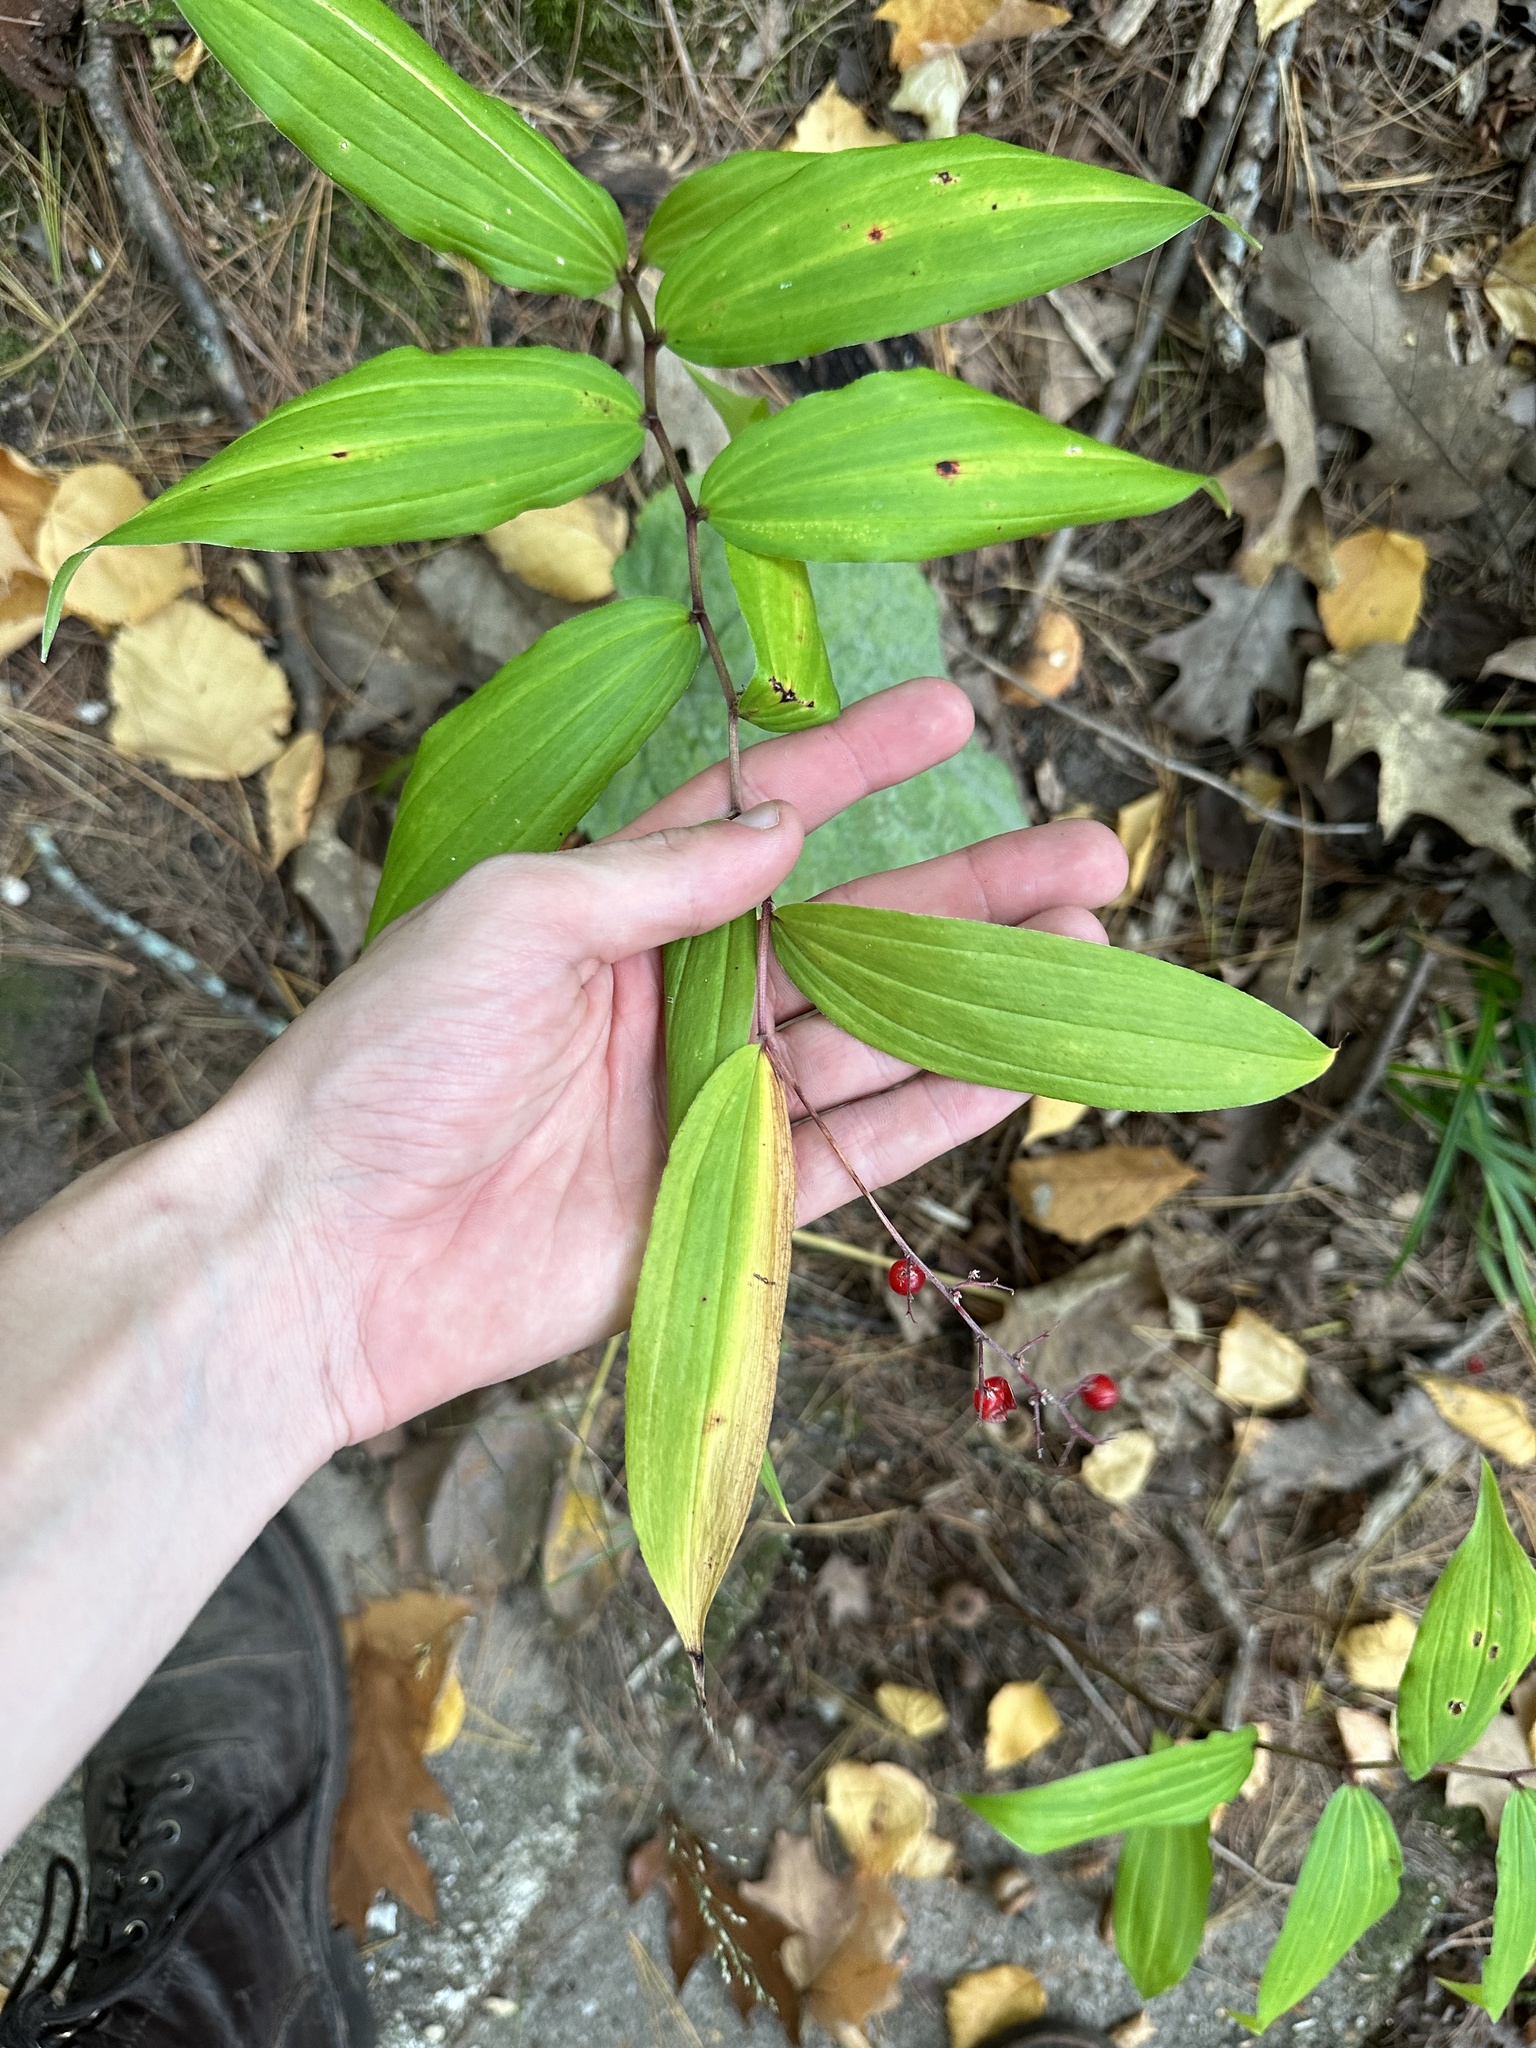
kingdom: Plantae
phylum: Tracheophyta
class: Liliopsida
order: Asparagales
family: Asparagaceae
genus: Maianthemum
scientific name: Maianthemum racemosum
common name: False spikenard
